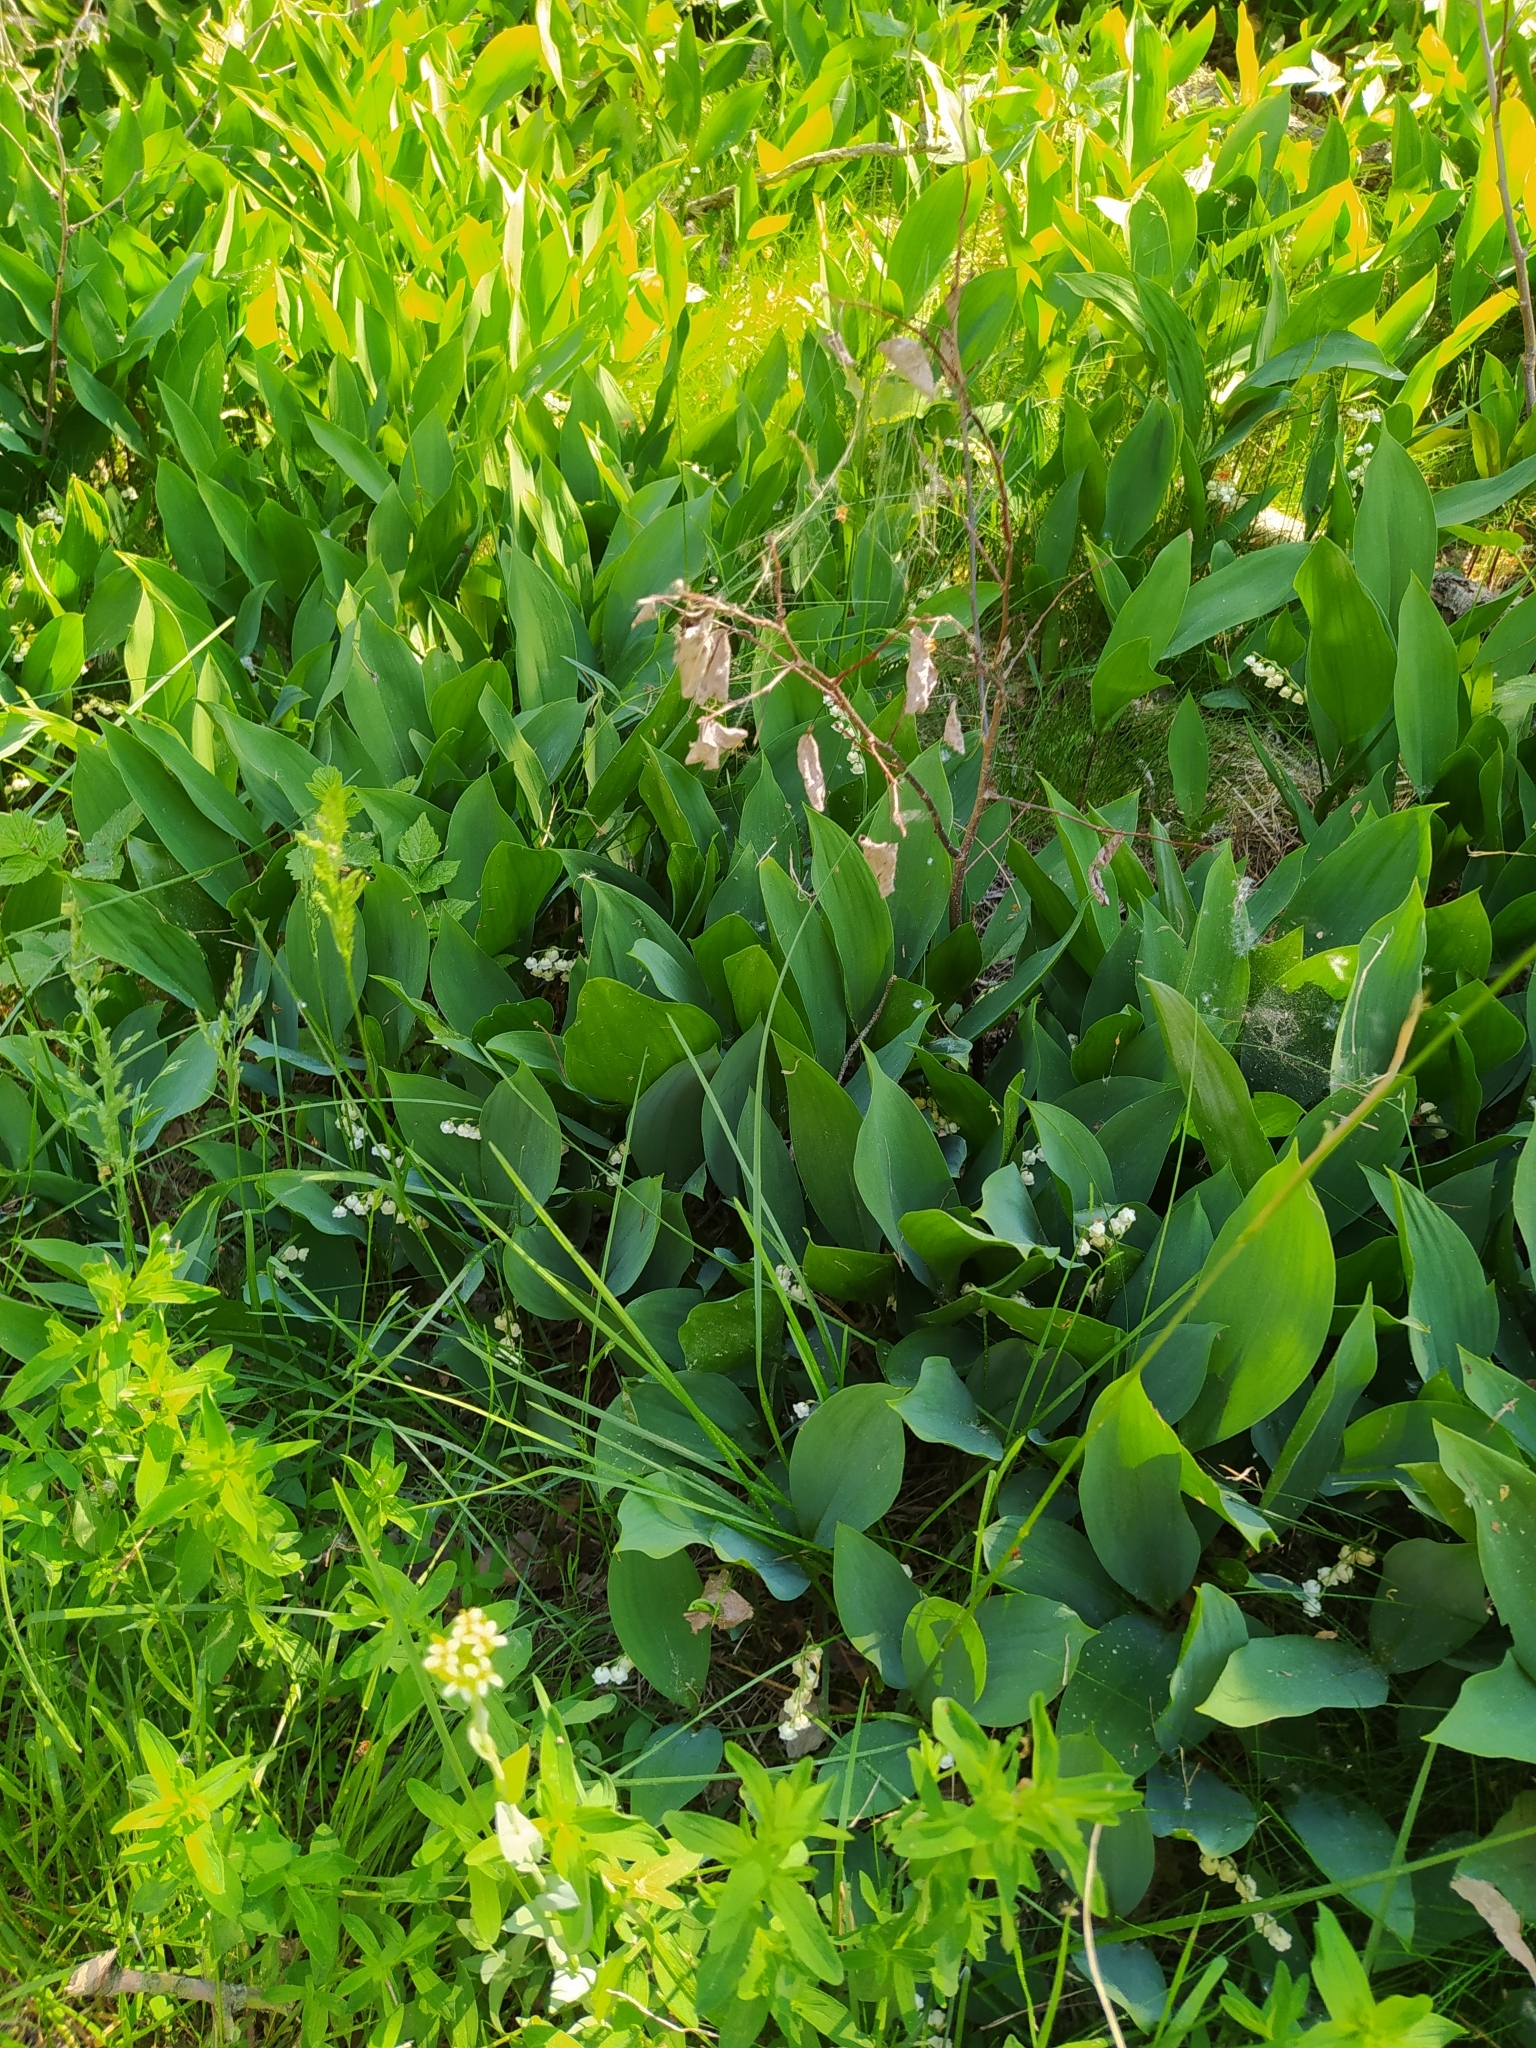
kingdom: Plantae
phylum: Tracheophyta
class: Liliopsida
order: Asparagales
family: Asparagaceae
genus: Convallaria
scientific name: Convallaria majalis
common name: Lily-of-the-valley
